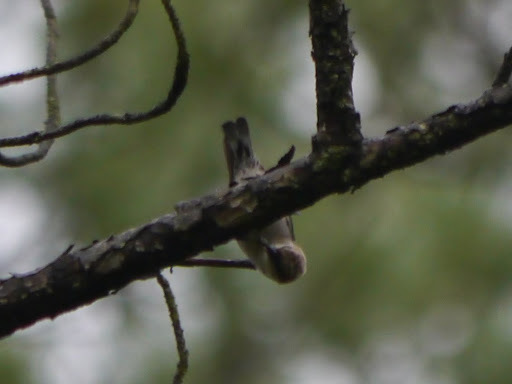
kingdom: Animalia
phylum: Chordata
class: Aves
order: Passeriformes
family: Sittidae
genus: Sitta
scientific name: Sitta pusilla
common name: Brown-headed nuthatch
